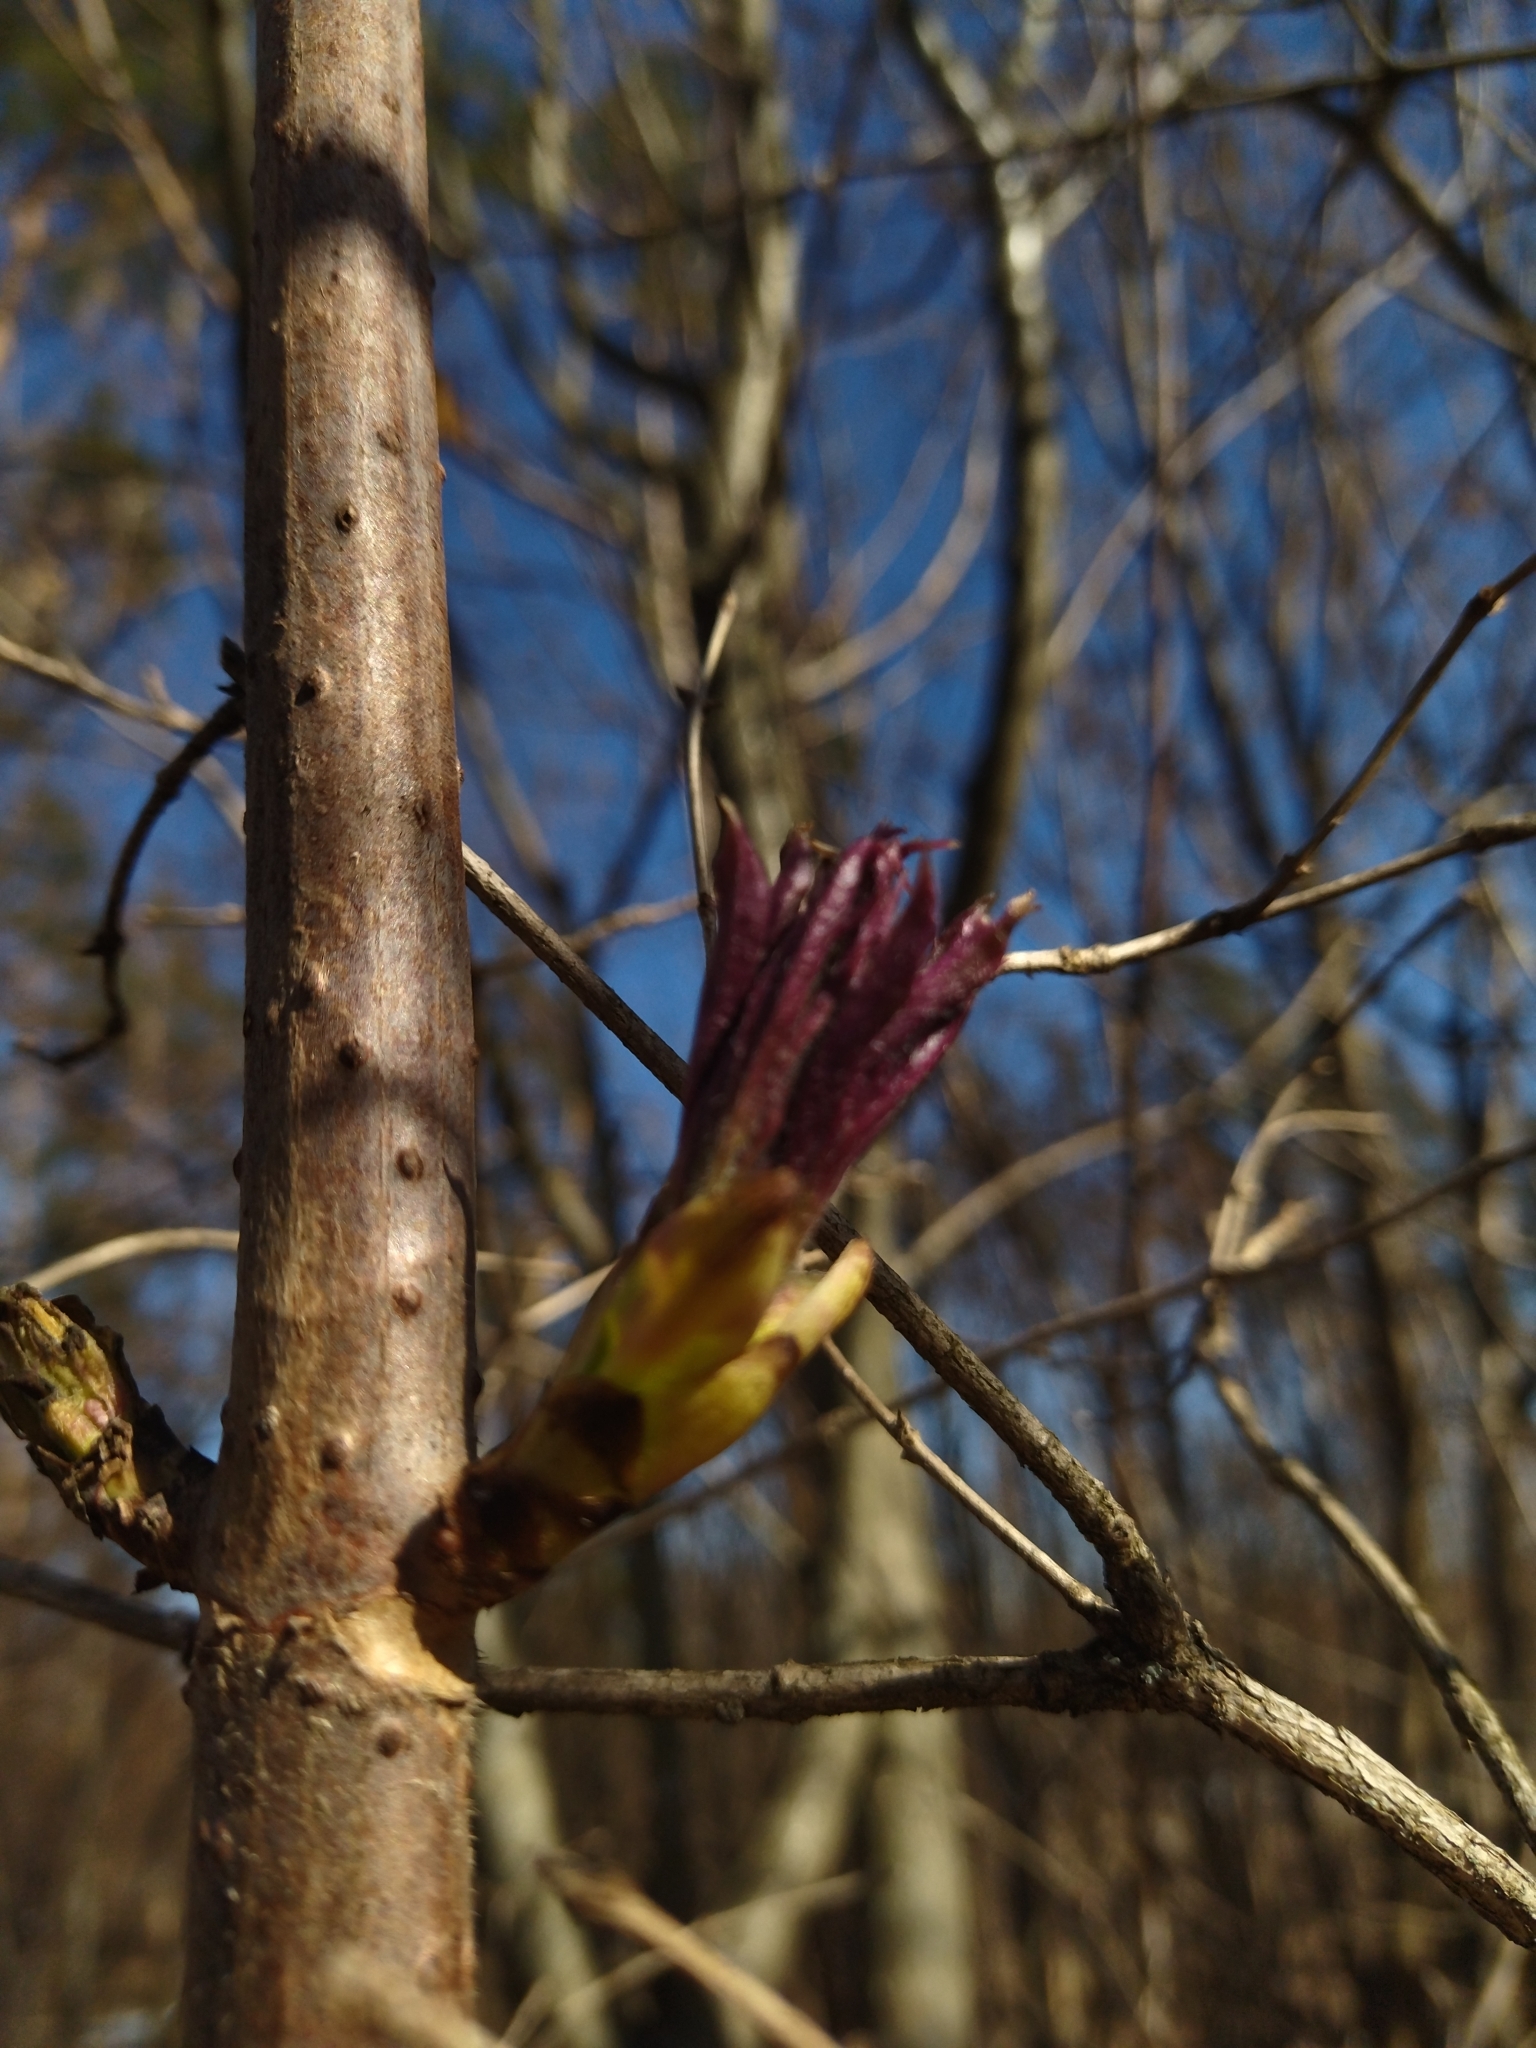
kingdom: Plantae
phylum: Tracheophyta
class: Magnoliopsida
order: Dipsacales
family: Viburnaceae
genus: Sambucus
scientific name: Sambucus racemosa
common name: Red-berried elder
